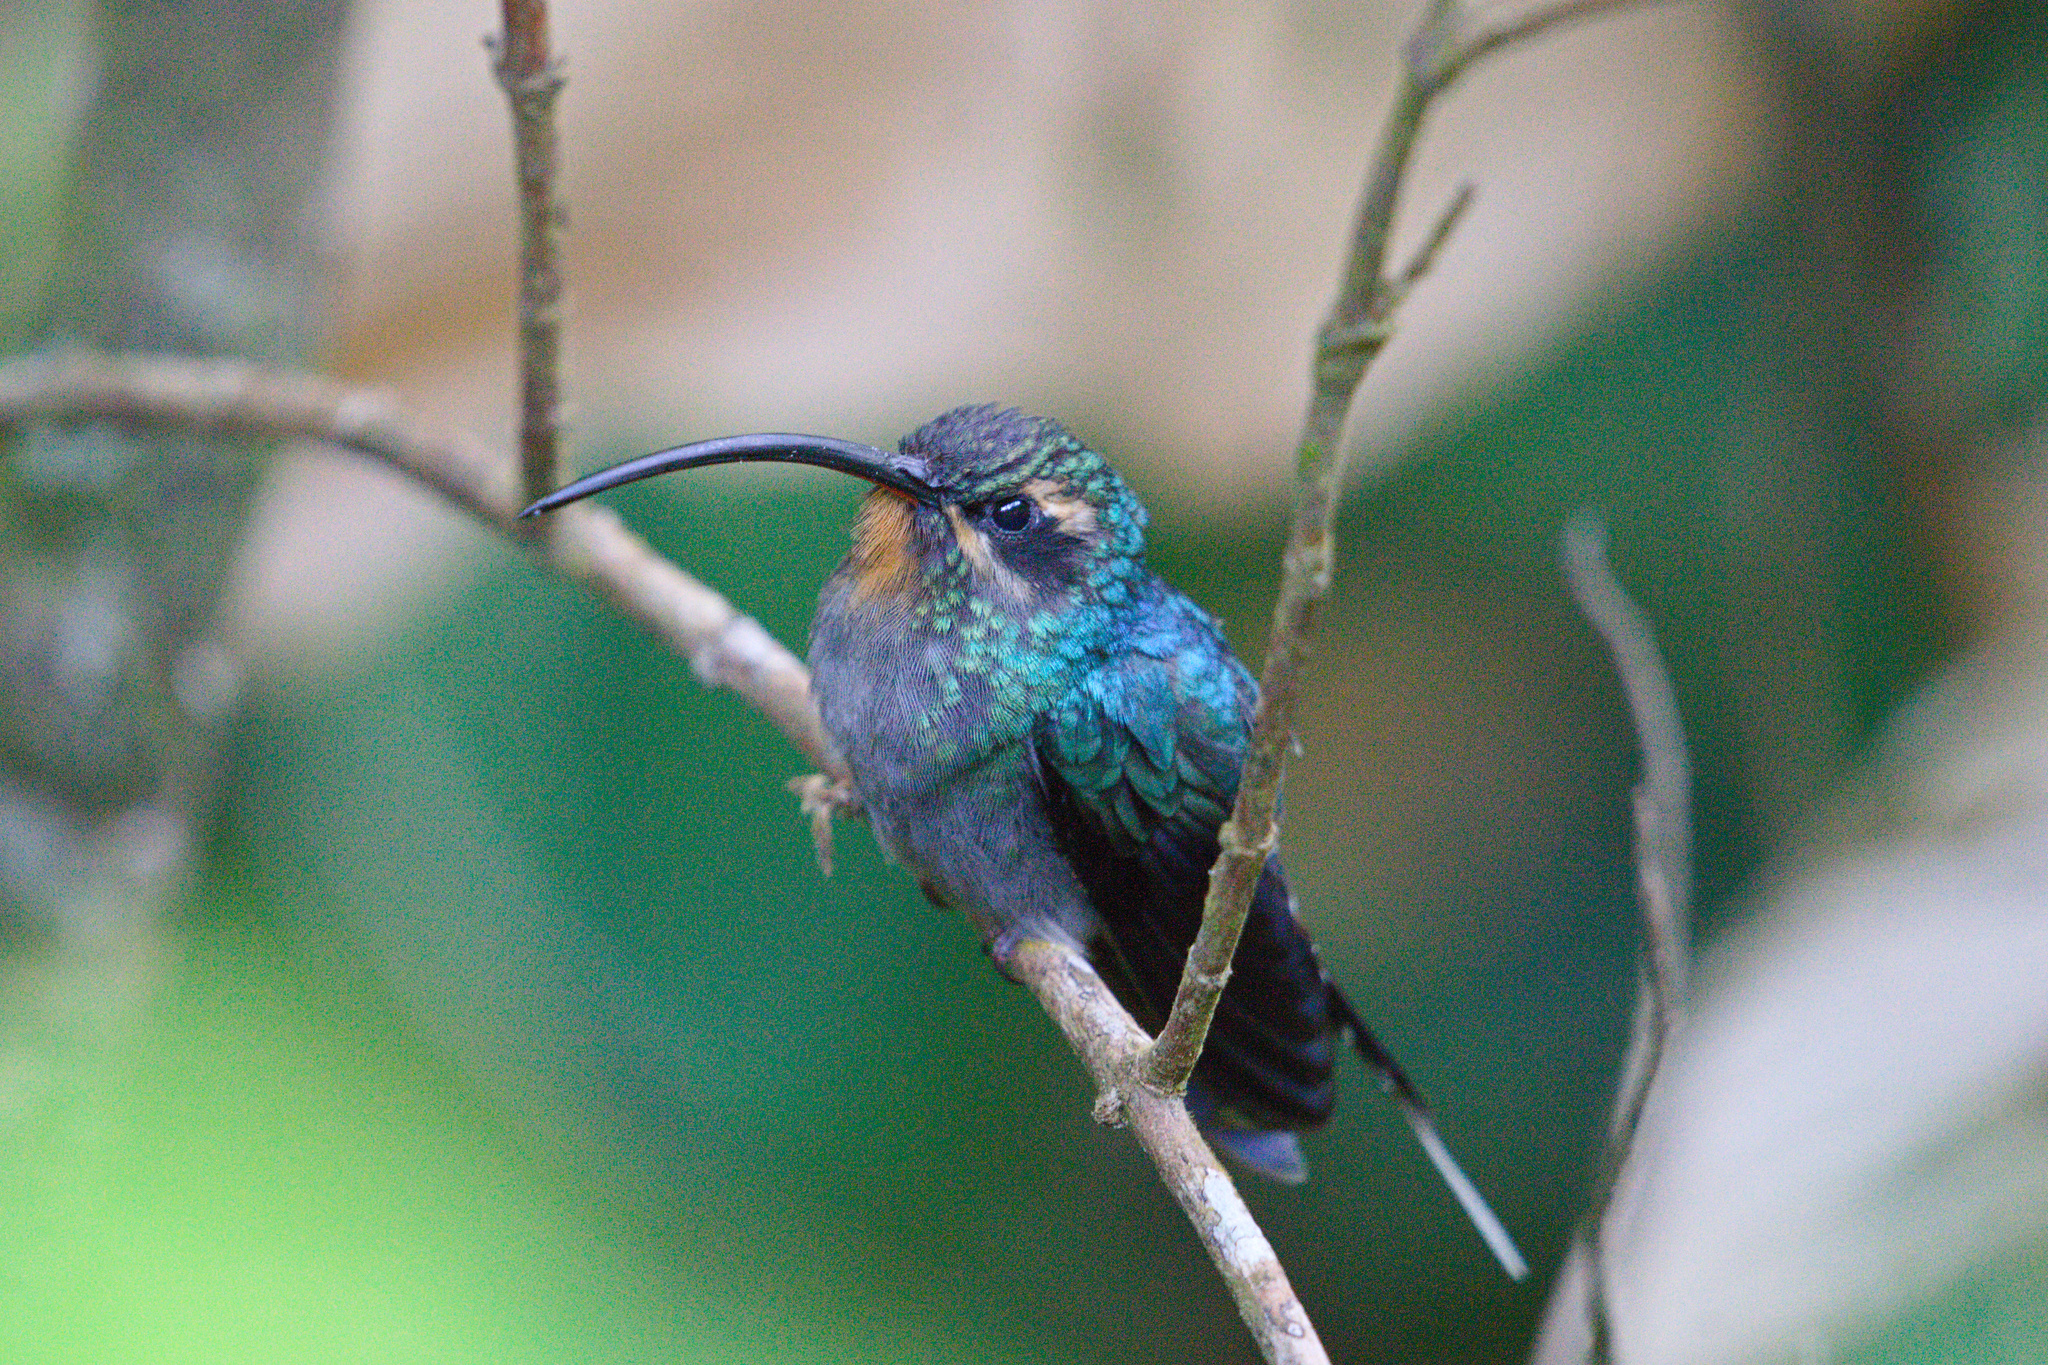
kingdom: Animalia
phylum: Chordata
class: Aves
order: Apodiformes
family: Trochilidae
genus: Phaethornis
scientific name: Phaethornis guy
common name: Green hermit
